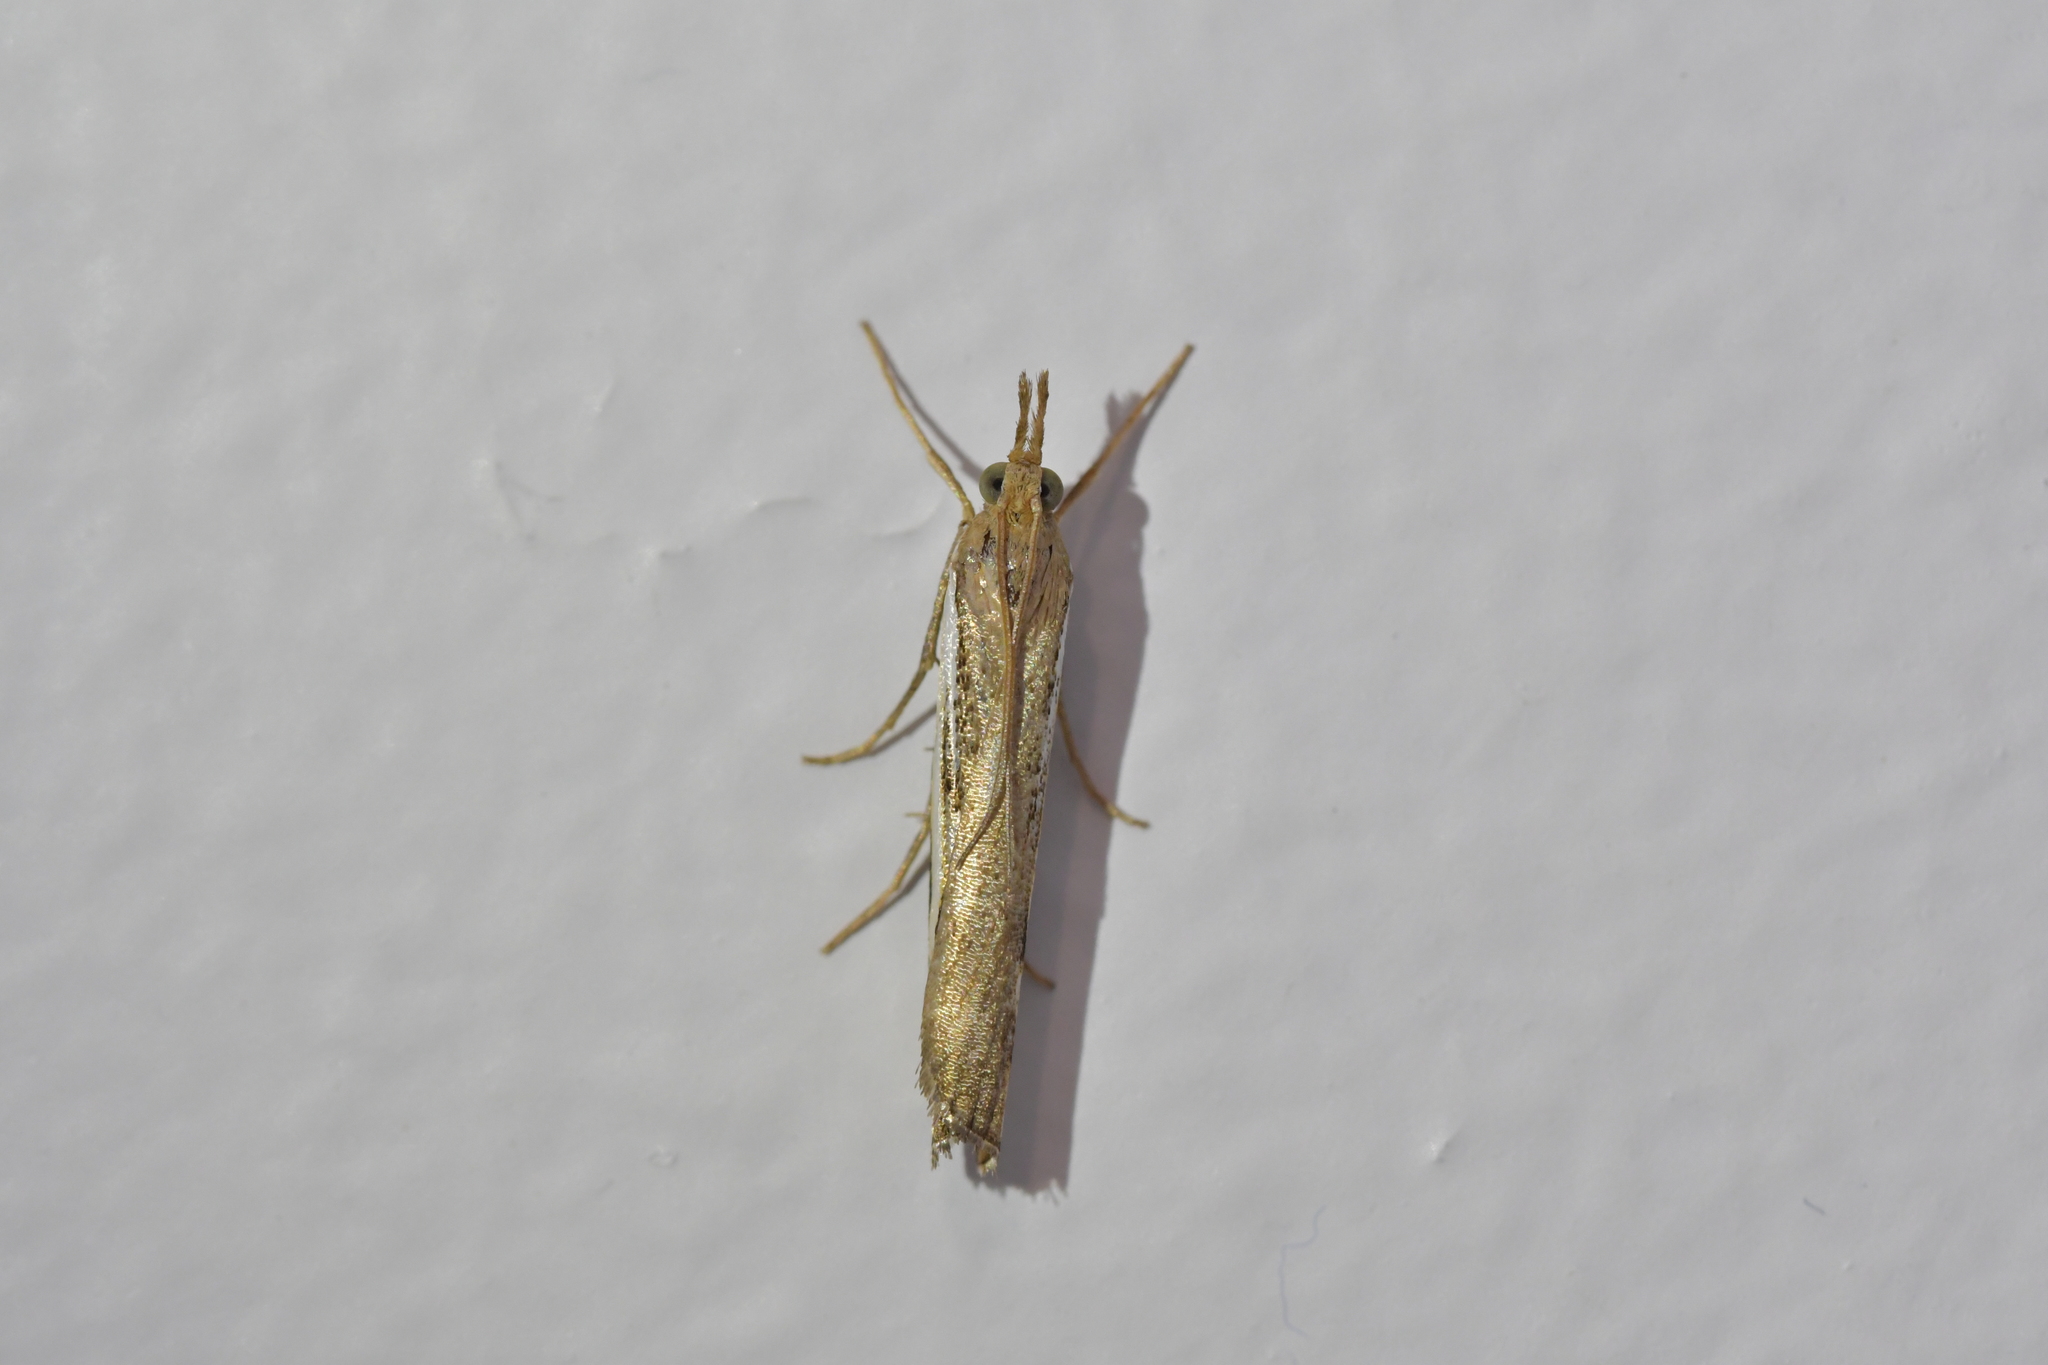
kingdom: Animalia
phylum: Arthropoda
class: Insecta
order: Lepidoptera
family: Crambidae
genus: Orocrambus
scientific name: Orocrambus flexuosellus
